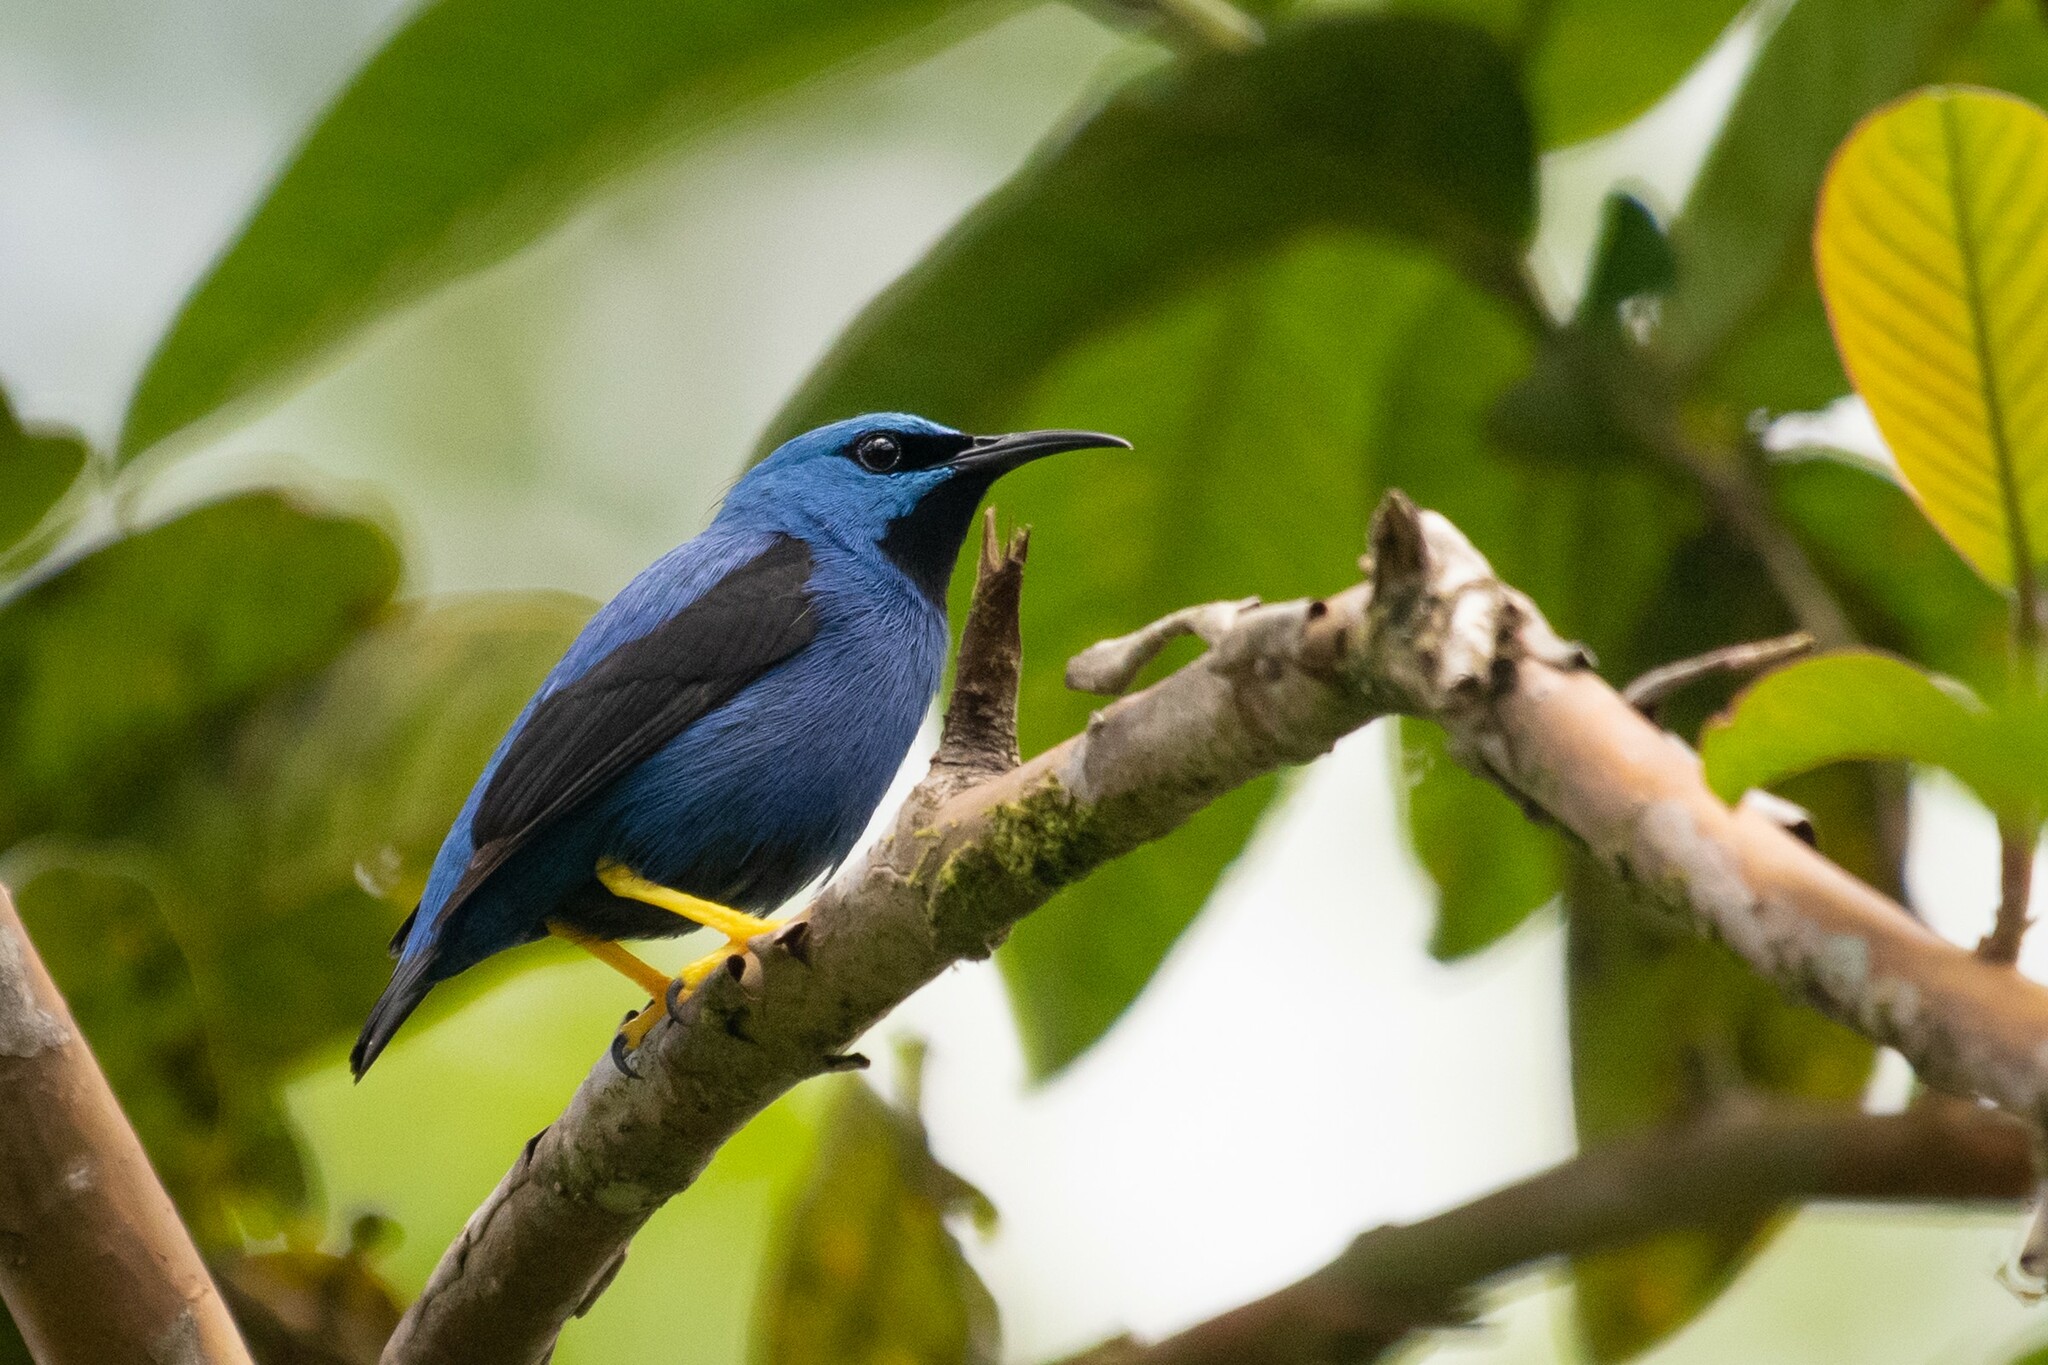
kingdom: Animalia
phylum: Chordata
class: Aves
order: Passeriformes
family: Thraupidae
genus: Cyanerpes
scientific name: Cyanerpes lucidus
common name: Shining honeycreeper
